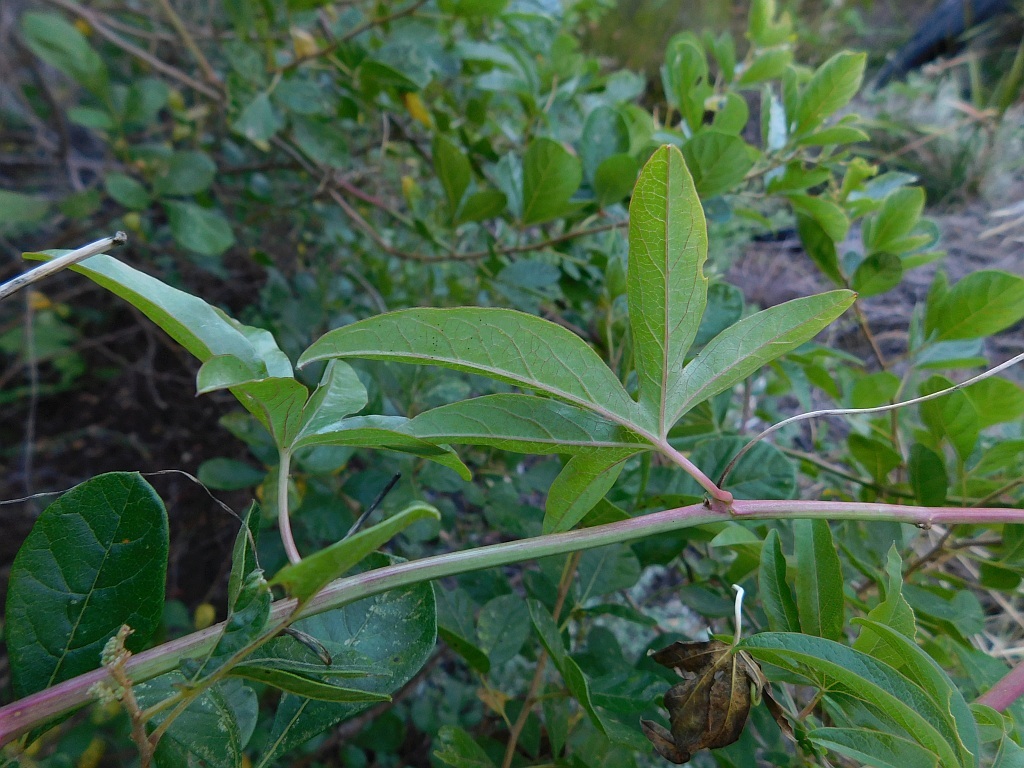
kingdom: Plantae
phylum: Tracheophyta
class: Magnoliopsida
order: Malpighiales
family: Passifloraceae
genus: Passiflora
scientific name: Passiflora caerulea
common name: Blue passionflower
